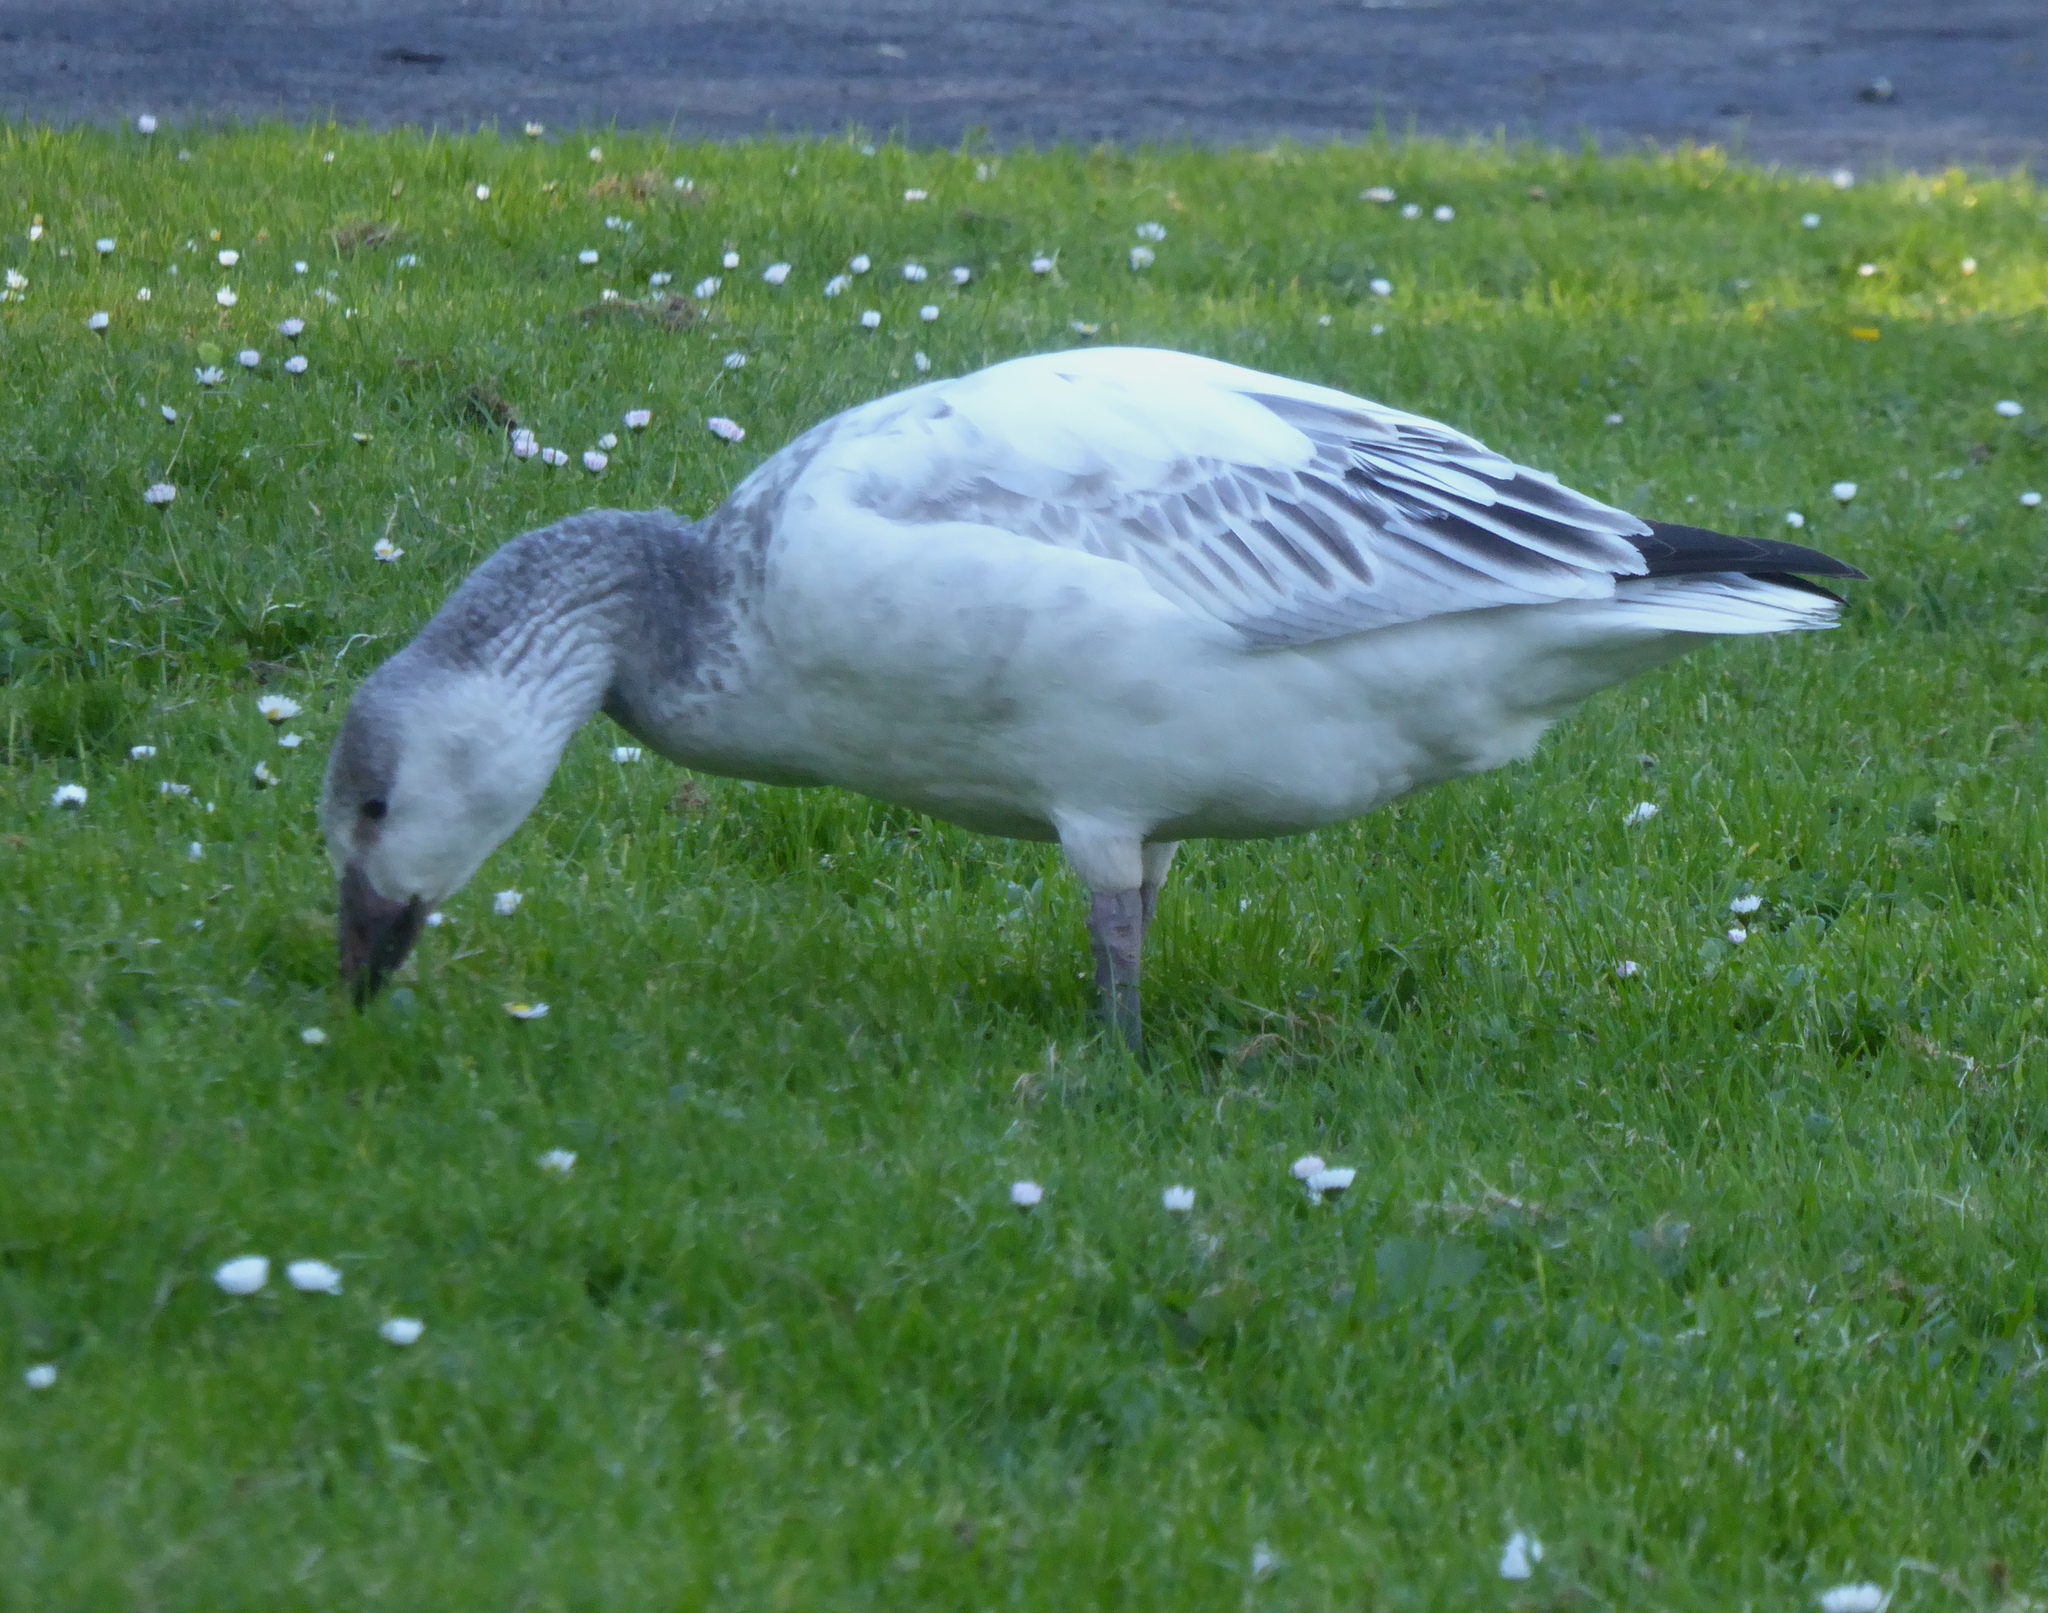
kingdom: Animalia
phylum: Chordata
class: Aves
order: Anseriformes
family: Anatidae
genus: Anser
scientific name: Anser caerulescens
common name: Snow goose
